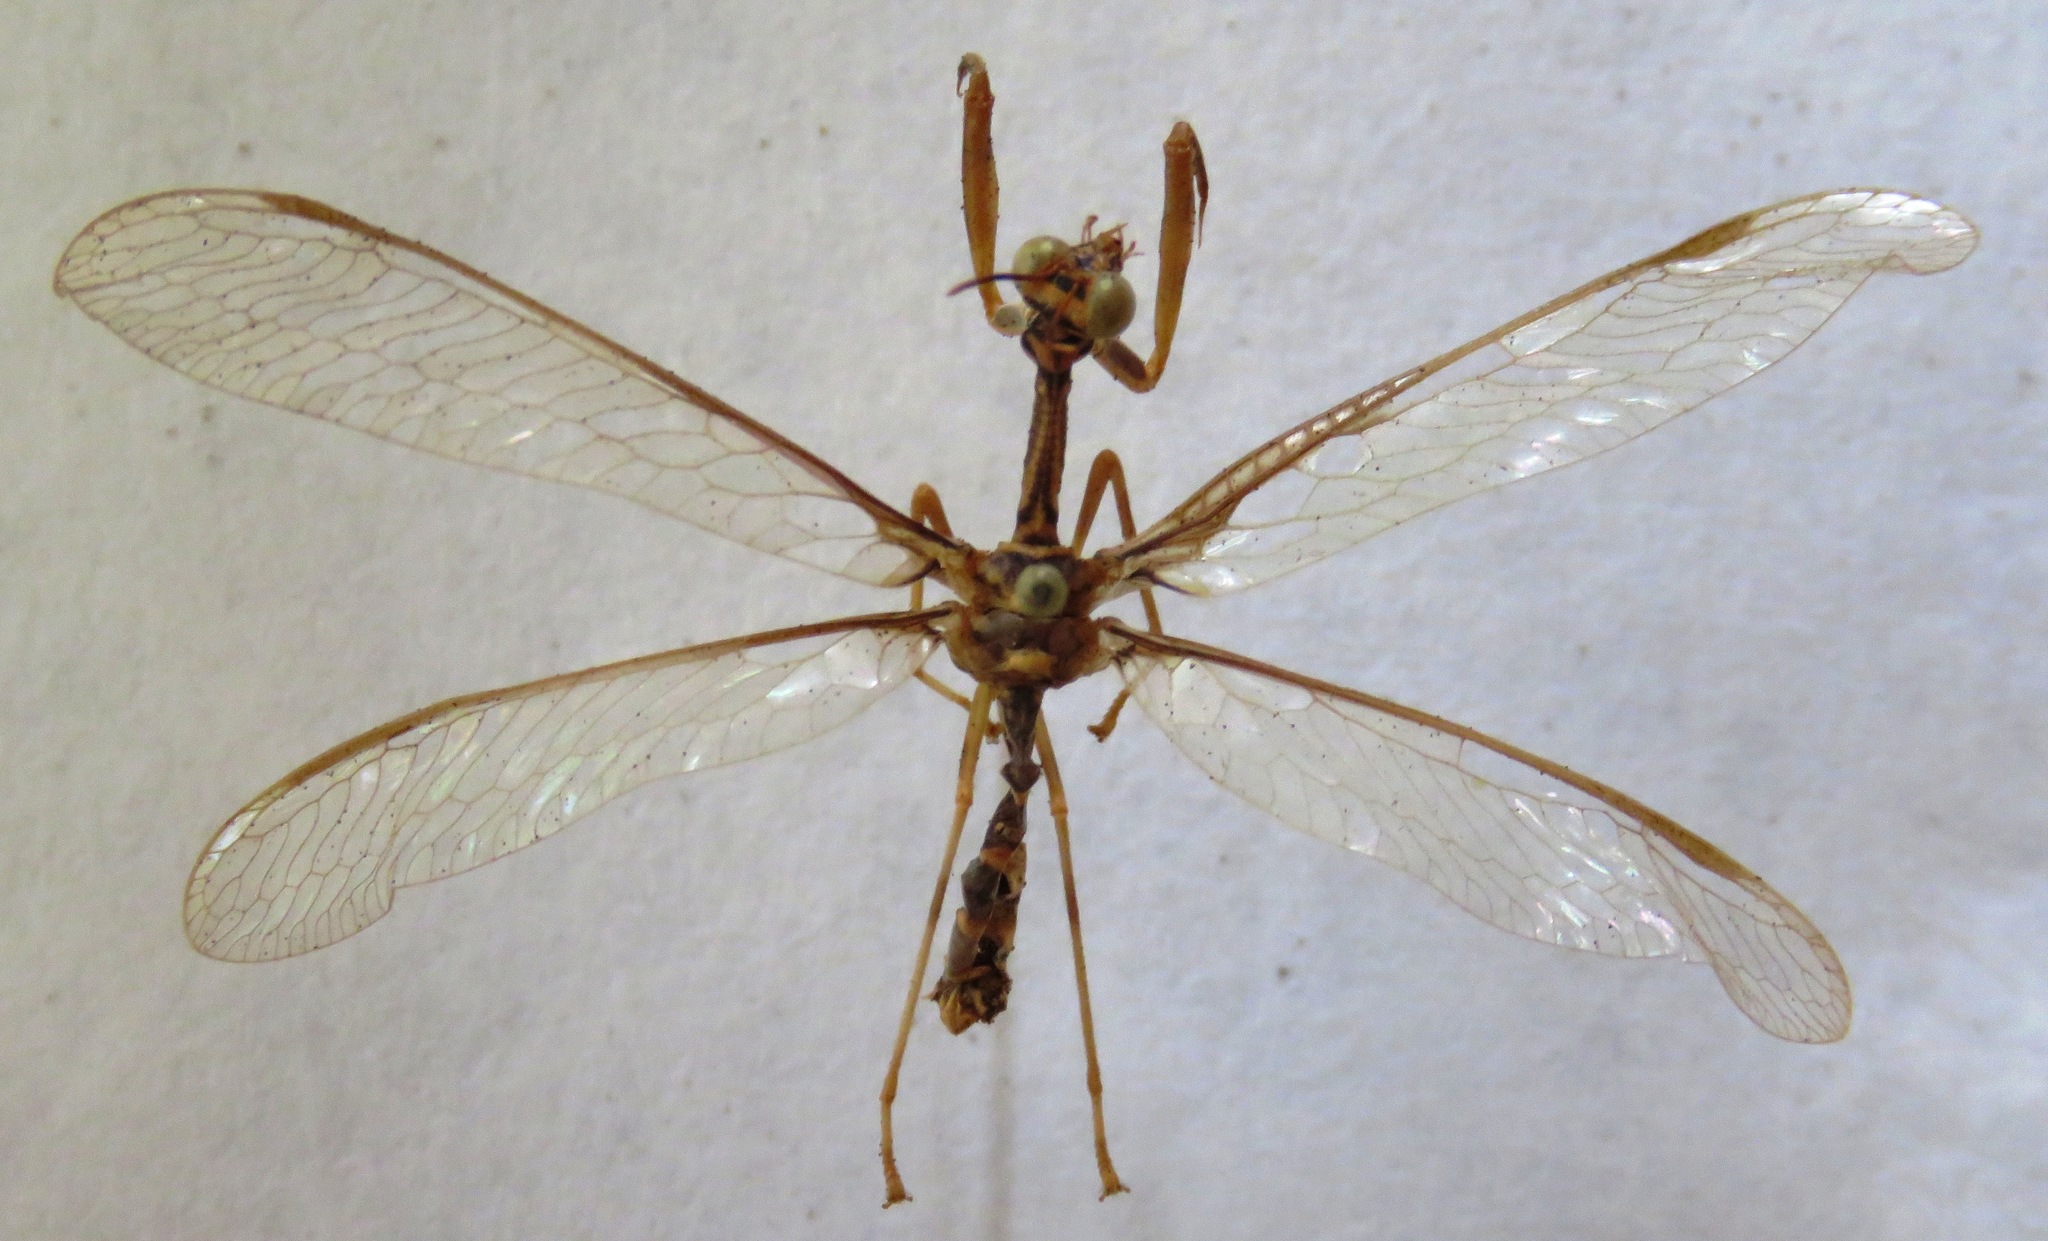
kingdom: Animalia
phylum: Arthropoda
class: Insecta
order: Neuroptera
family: Mantispidae
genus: Entanoneura
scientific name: Entanoneura batesella
